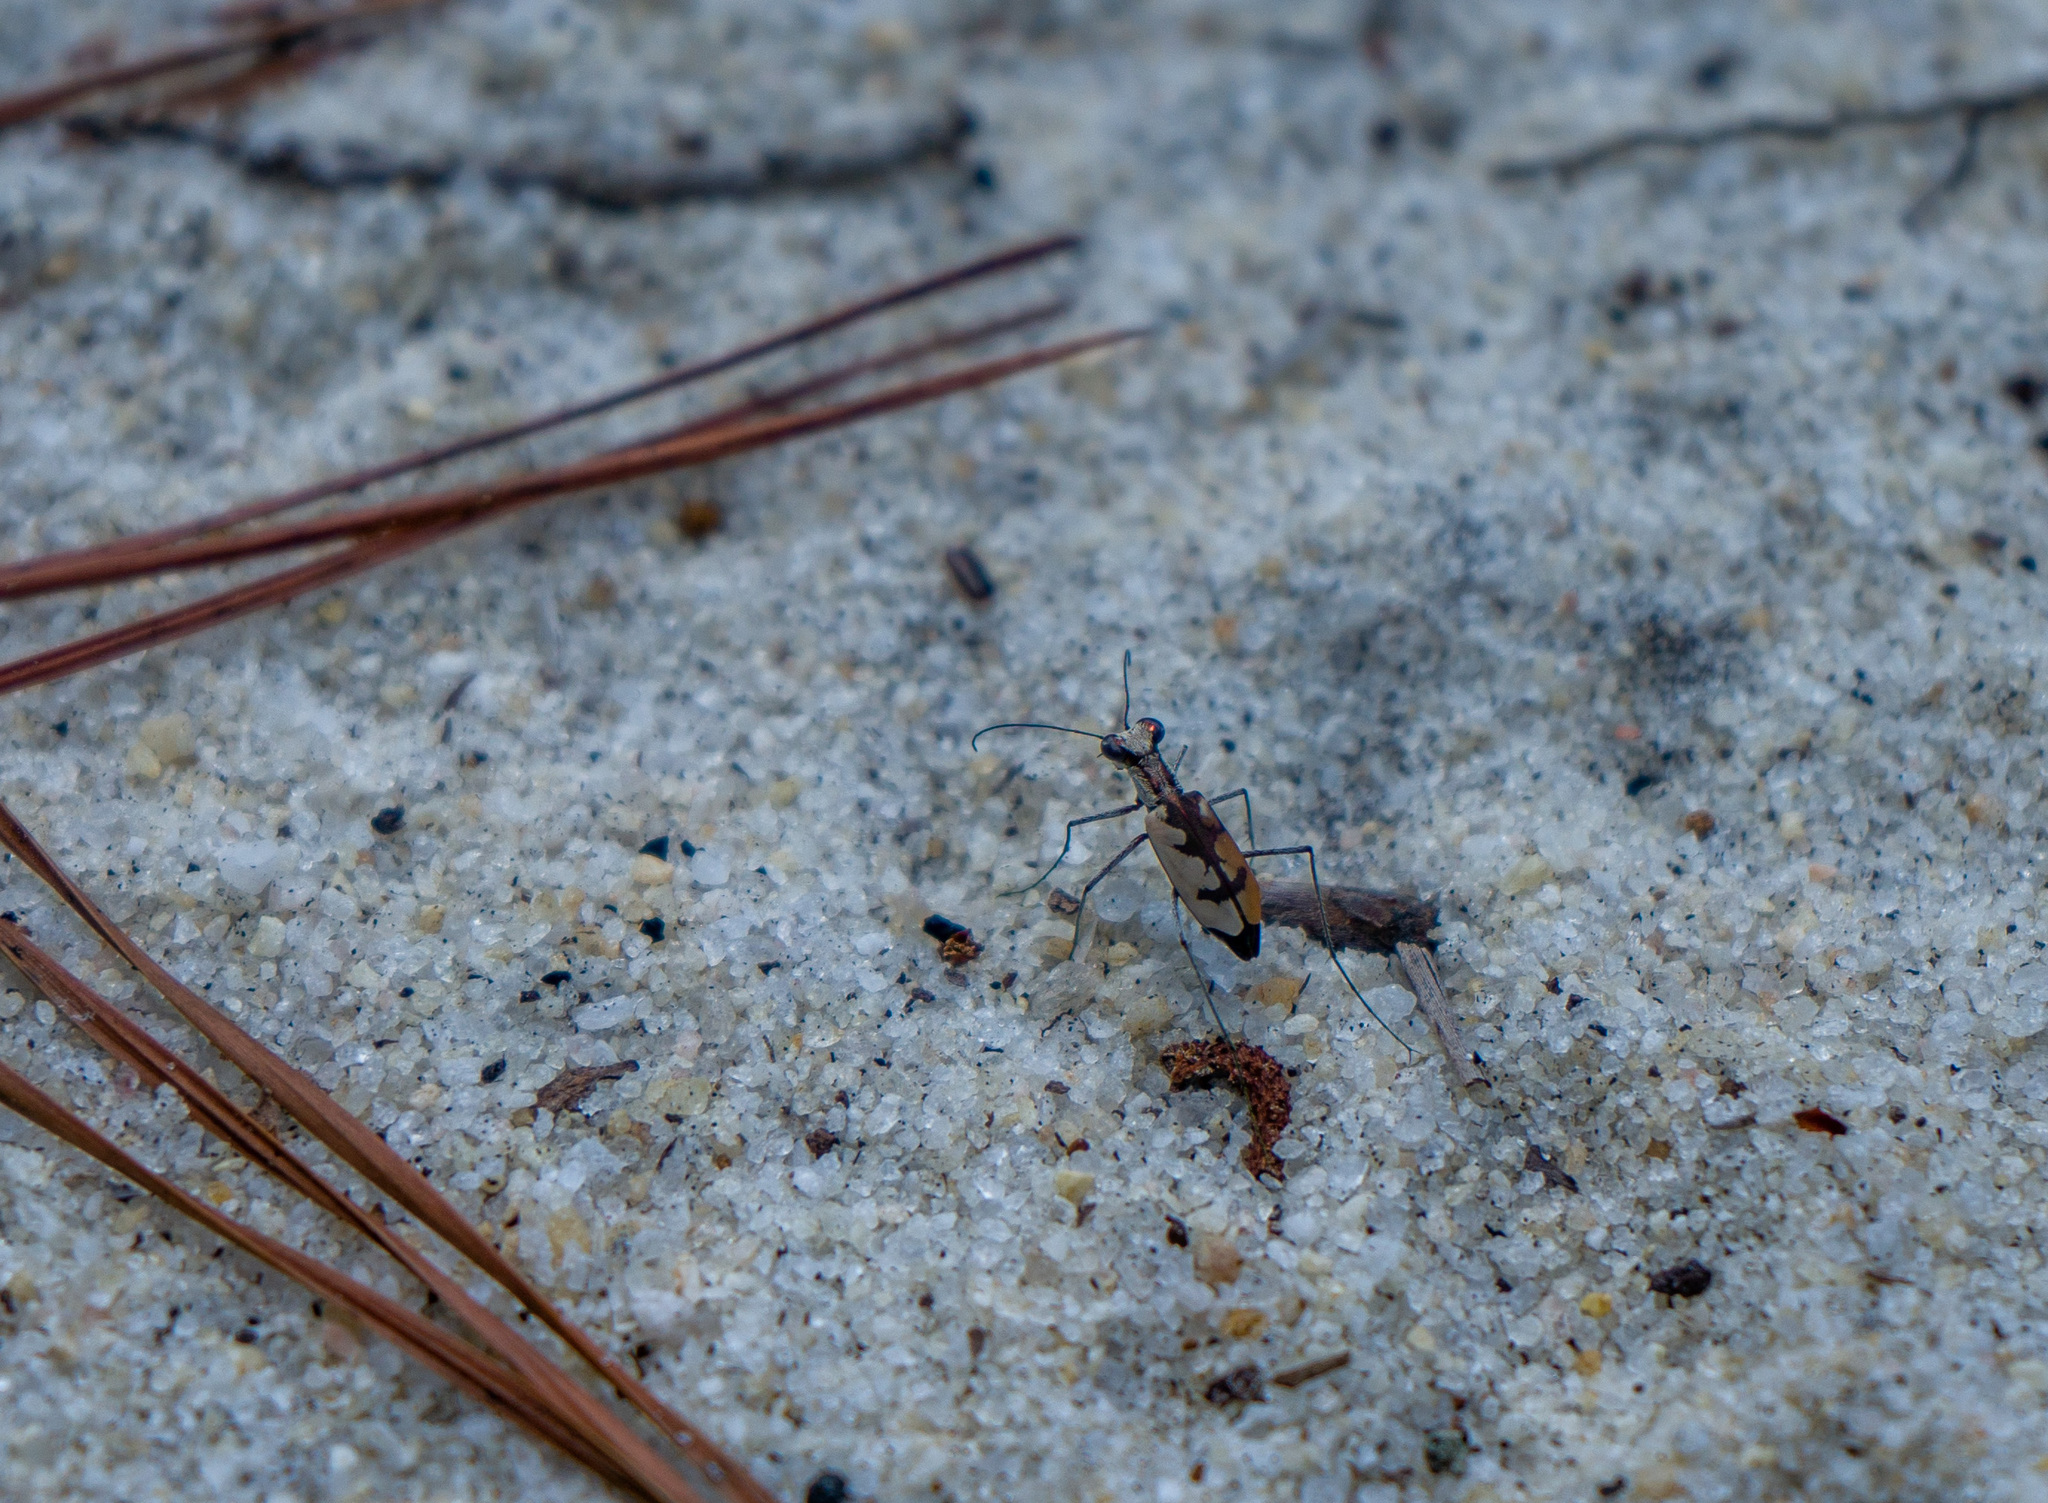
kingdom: Animalia
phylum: Arthropoda
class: Insecta
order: Coleoptera
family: Carabidae
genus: Ellipsoptera
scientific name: Ellipsoptera gratiosa
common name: Whitish tiger beetle
